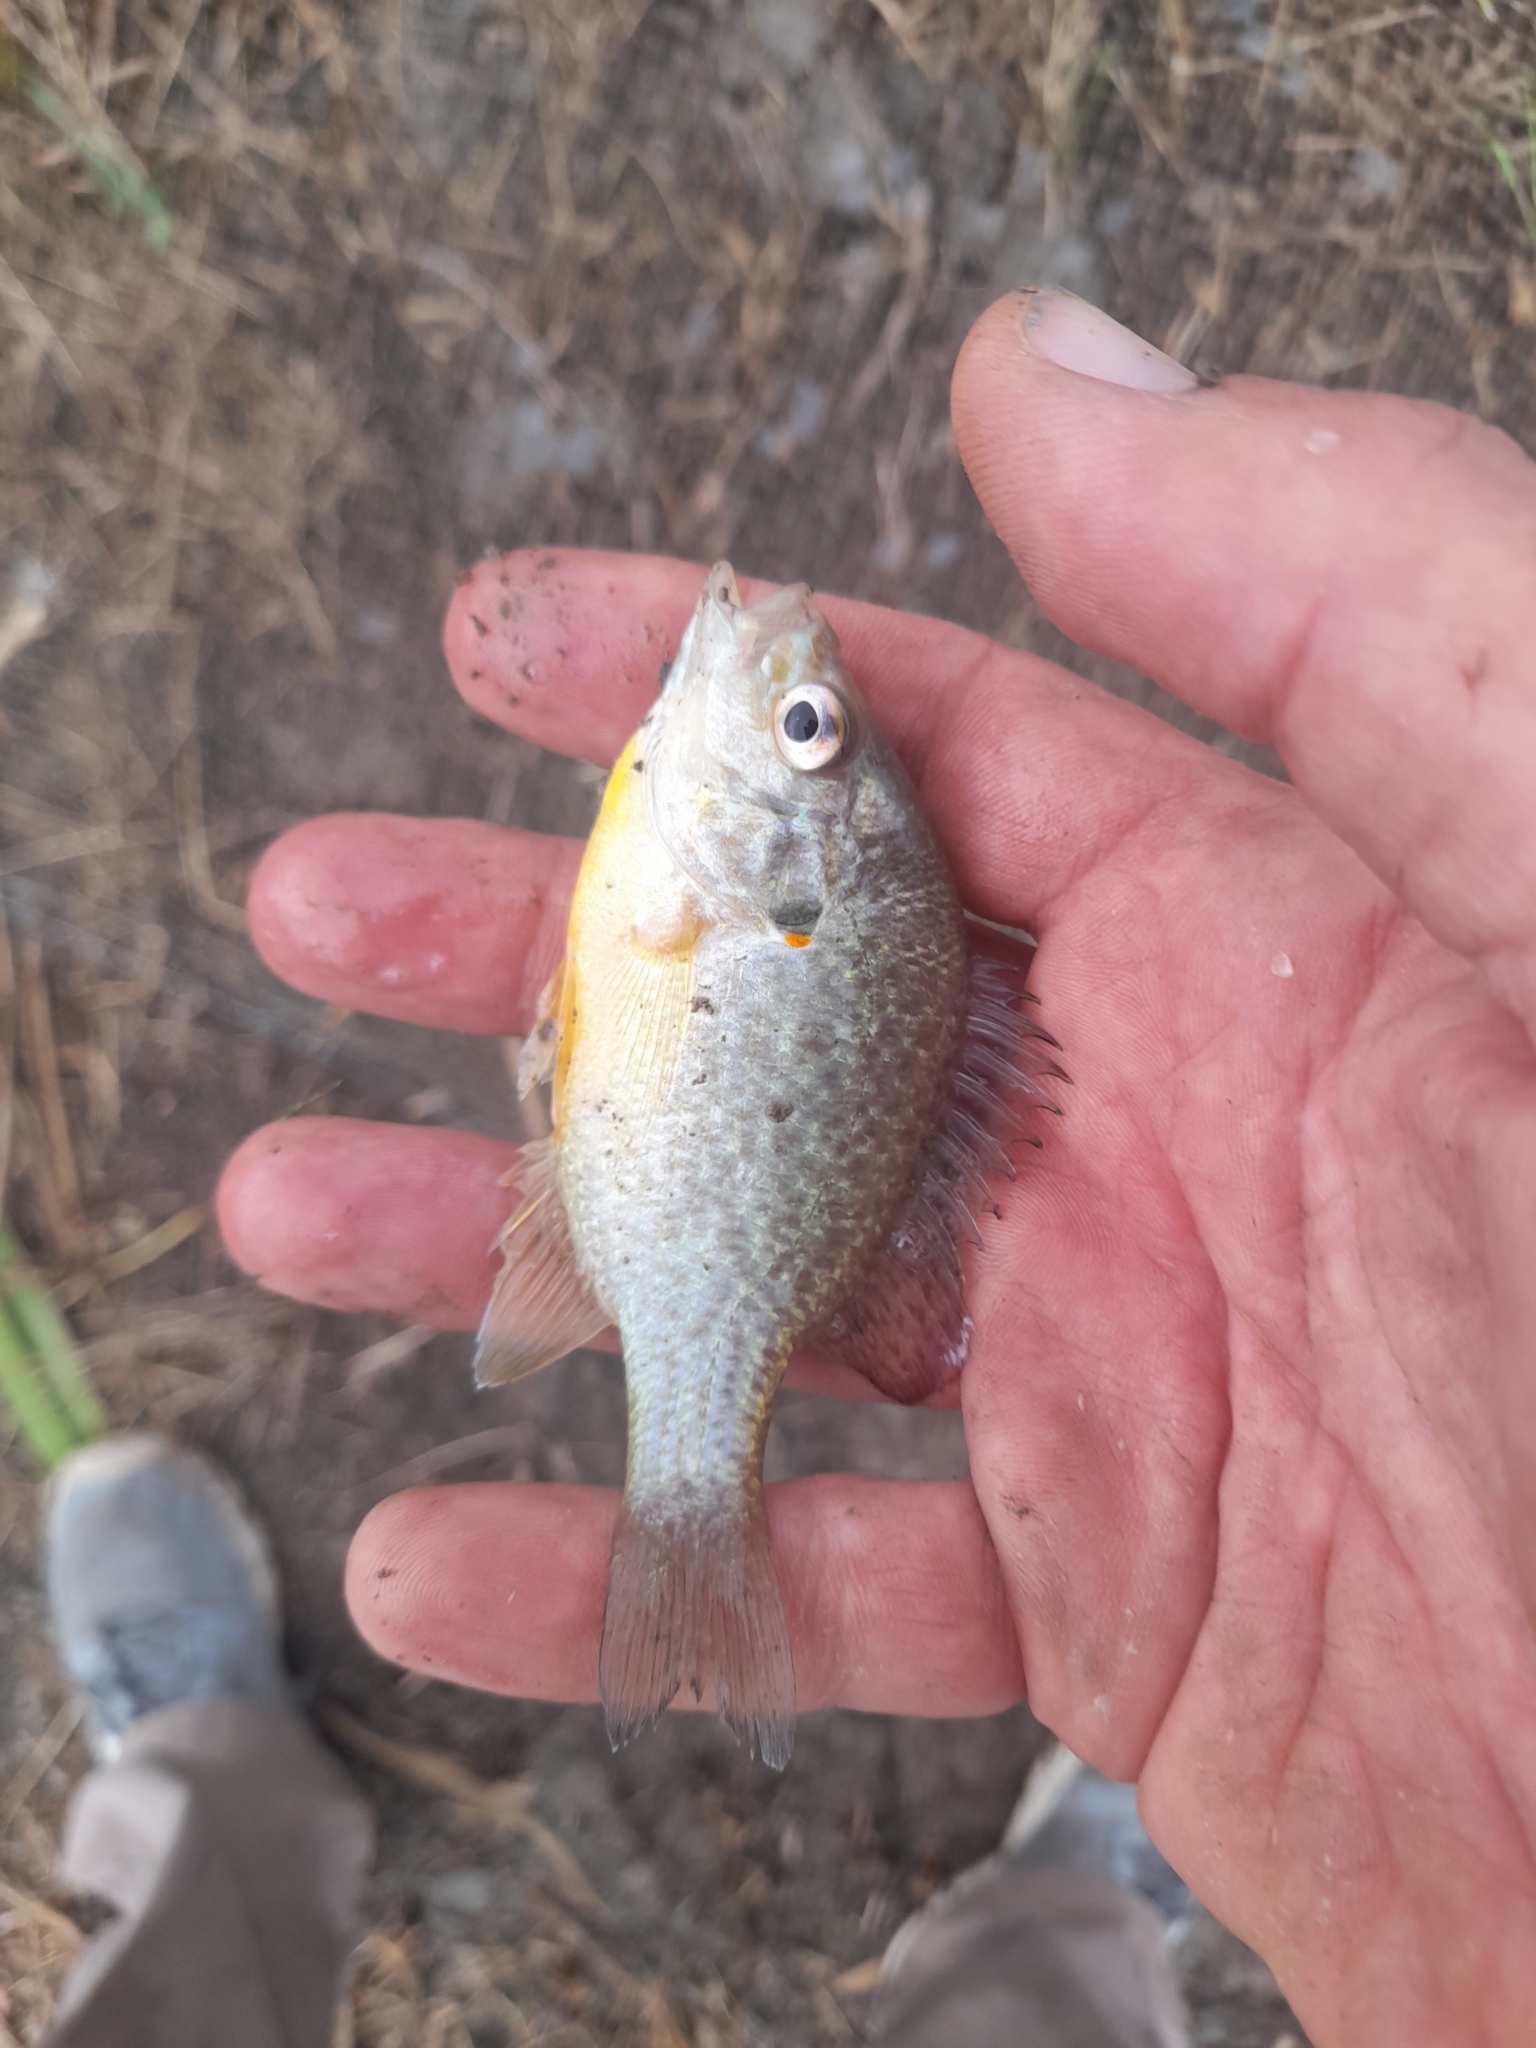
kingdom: Animalia
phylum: Chordata
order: Perciformes
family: Centrarchidae
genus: Lepomis
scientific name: Lepomis gibbosus
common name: Pumpkinseed
